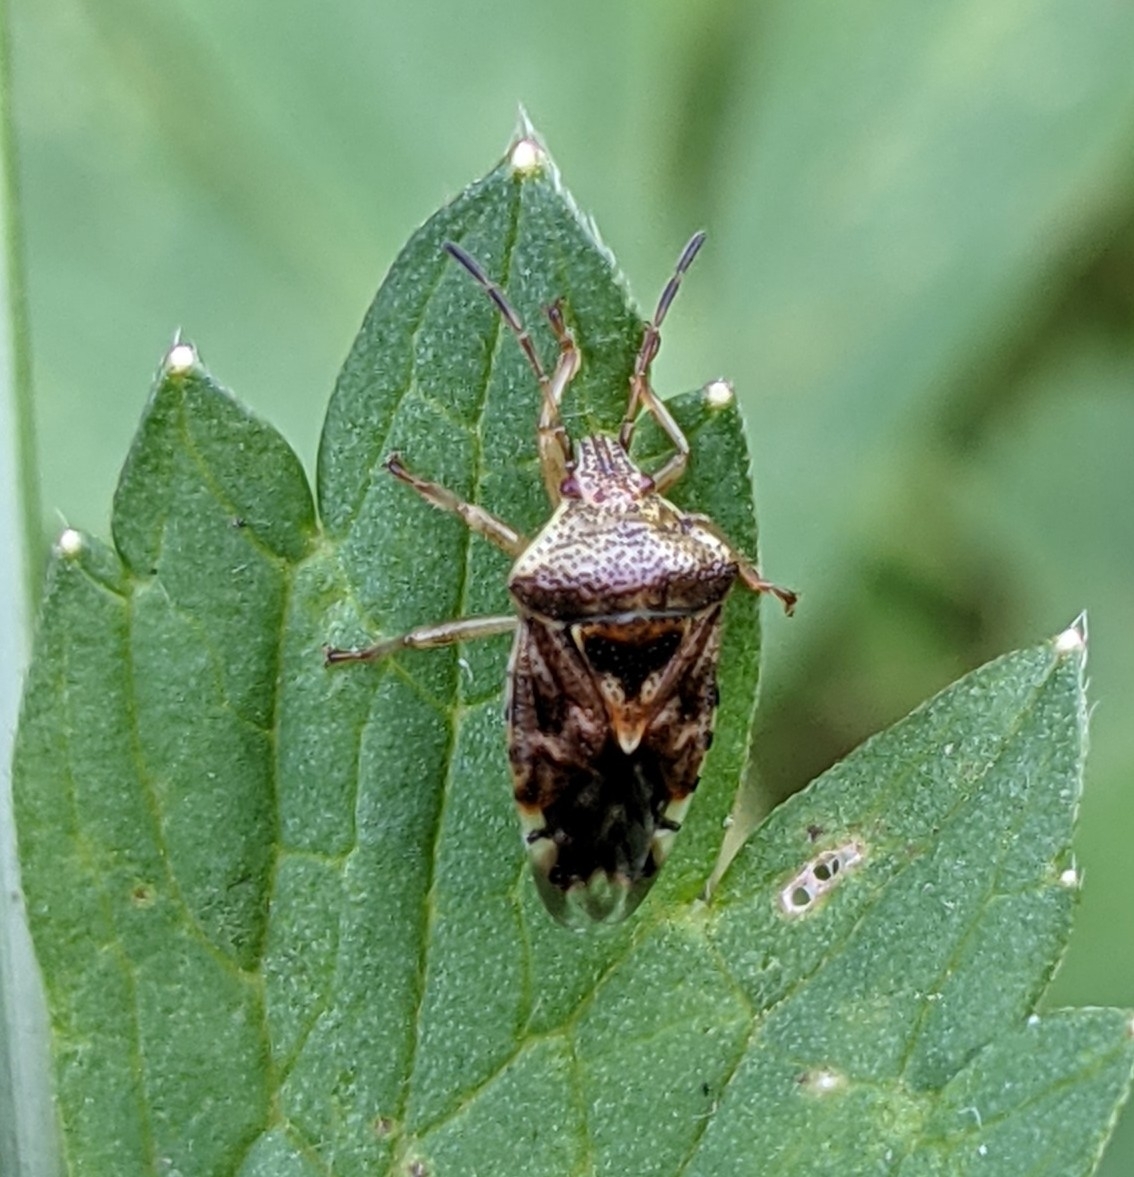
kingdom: Animalia
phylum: Arthropoda
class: Insecta
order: Hemiptera
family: Acanthosomatidae
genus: Elasmucha
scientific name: Elasmucha grisea
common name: Parent bug
